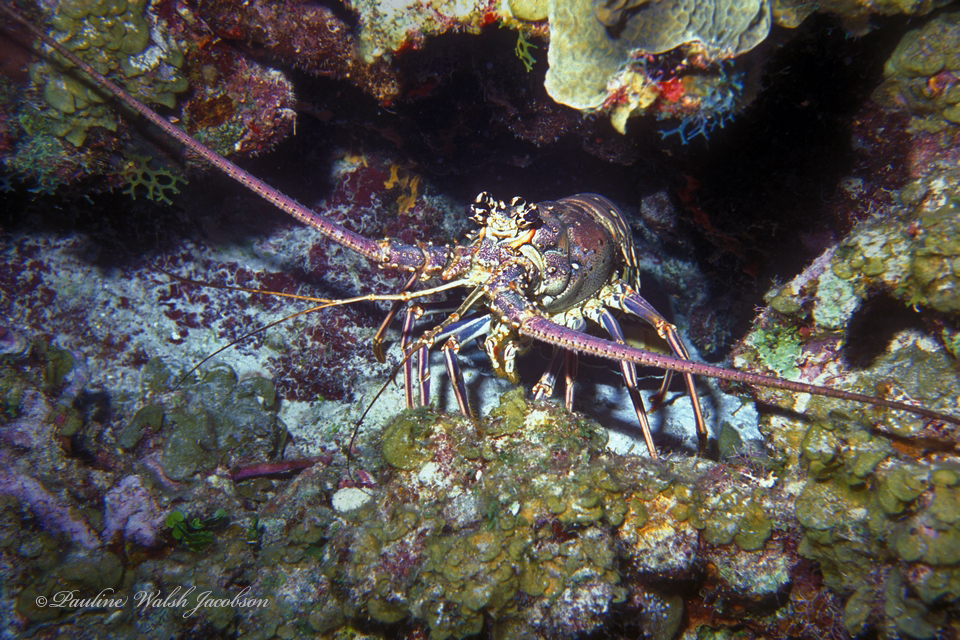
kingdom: Animalia
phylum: Arthropoda
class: Malacostraca
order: Decapoda
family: Palinuridae
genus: Panulirus
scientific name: Panulirus argus
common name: Caribbean spiny lobster
